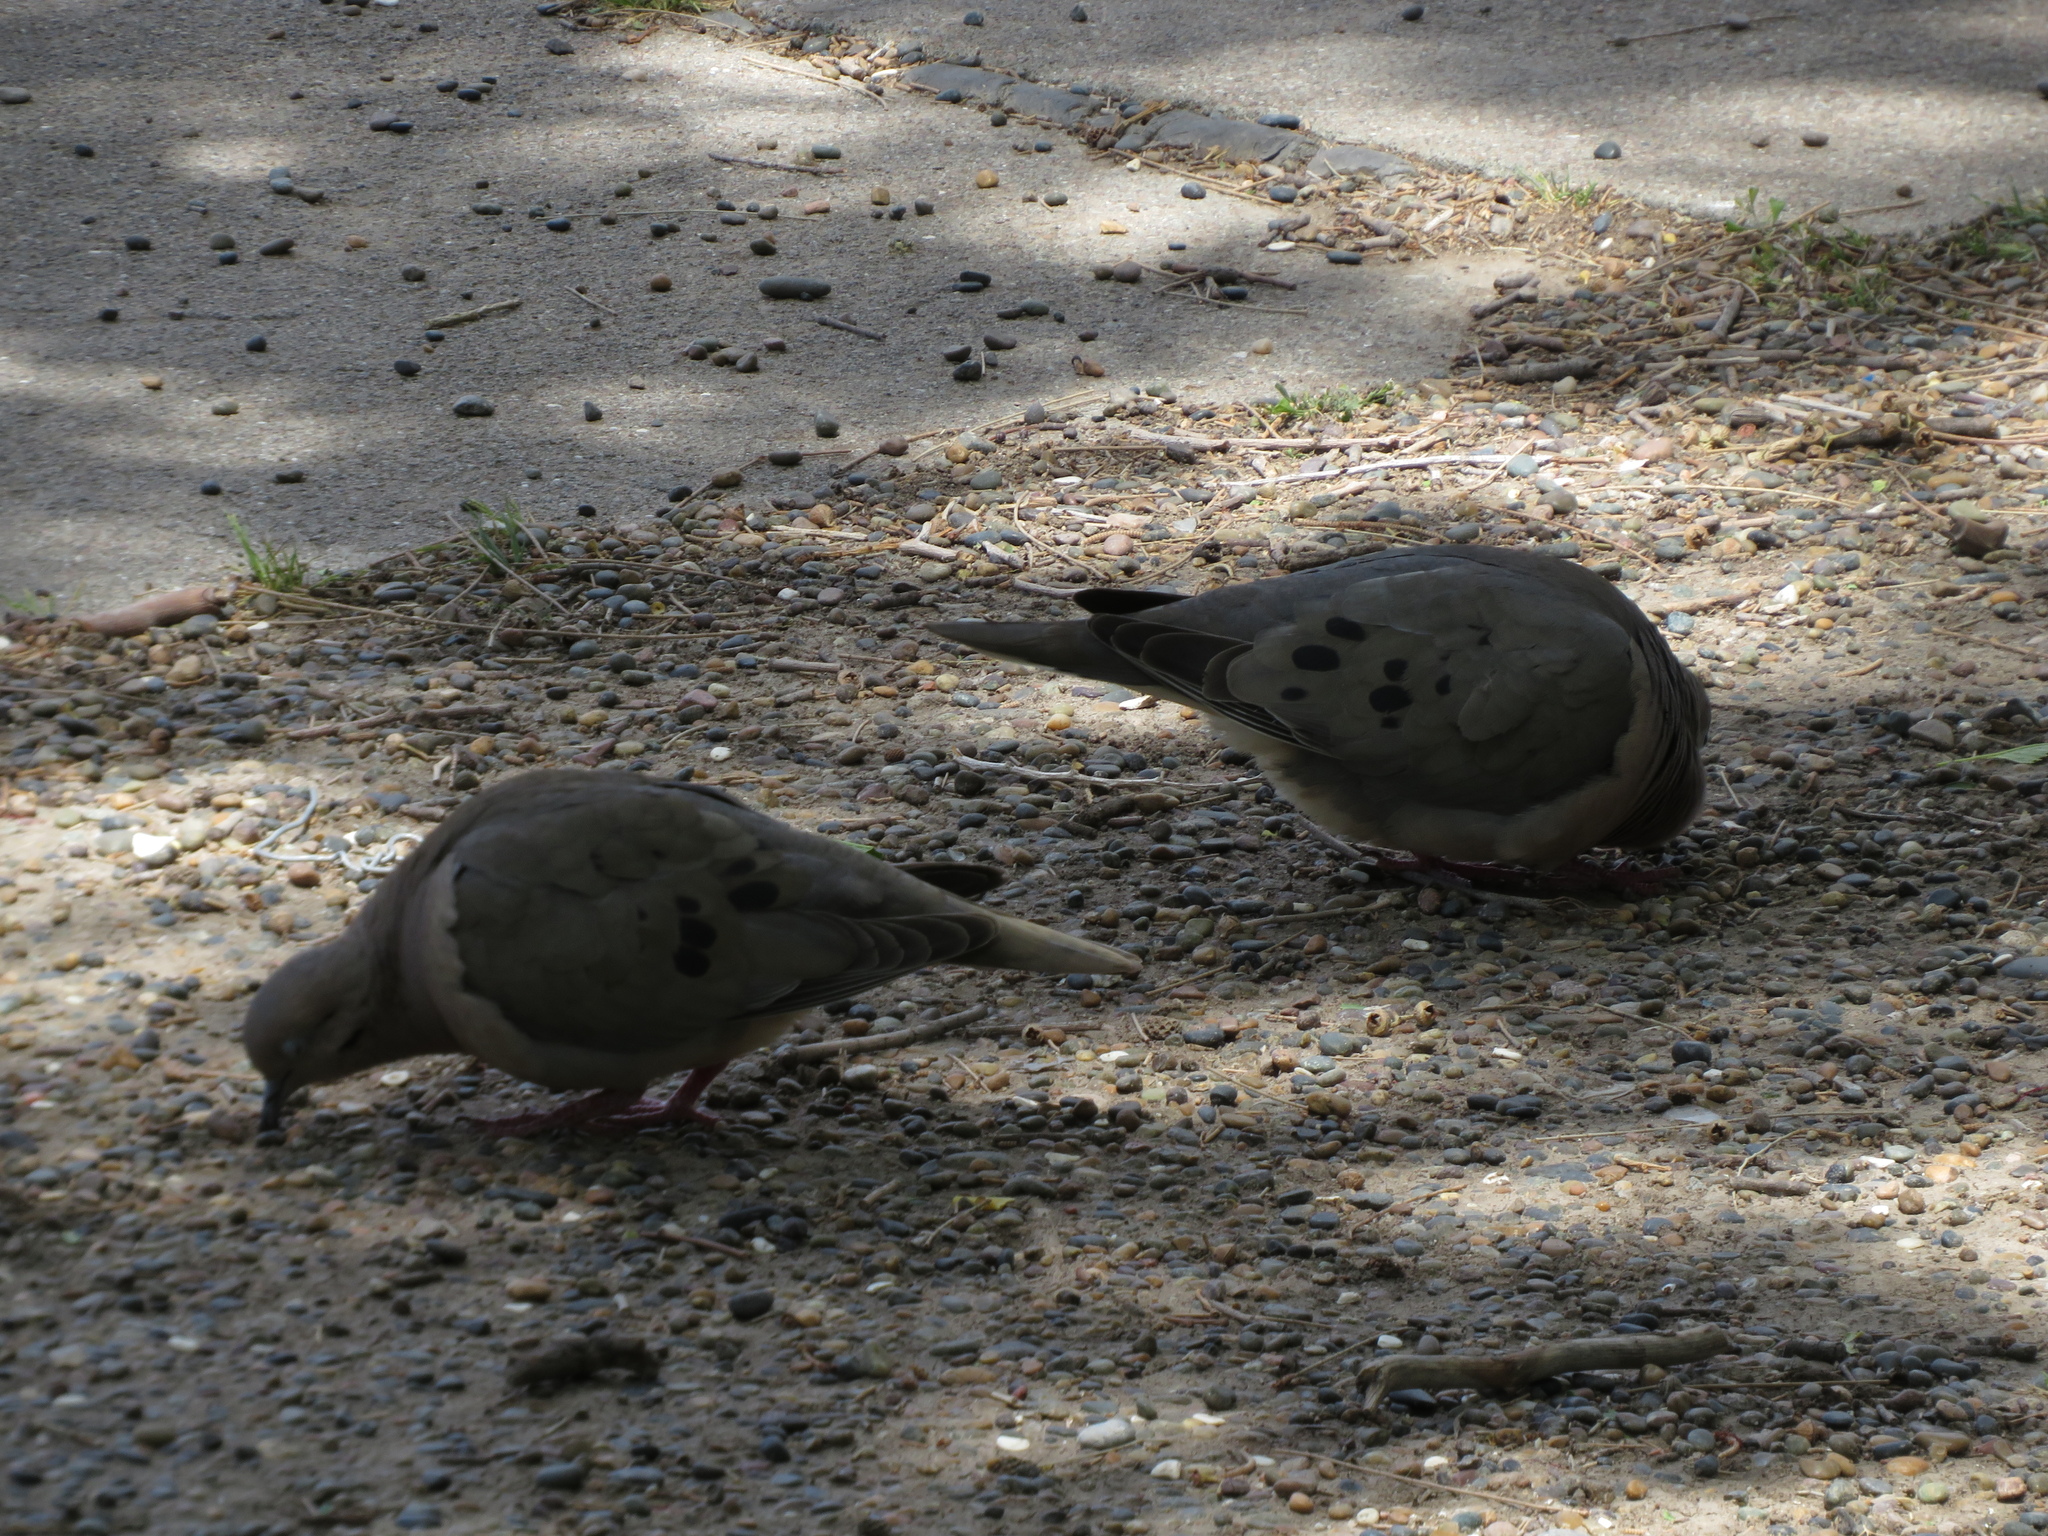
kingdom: Animalia
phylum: Chordata
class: Aves
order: Columbiformes
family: Columbidae
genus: Zenaida
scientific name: Zenaida auriculata
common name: Eared dove
